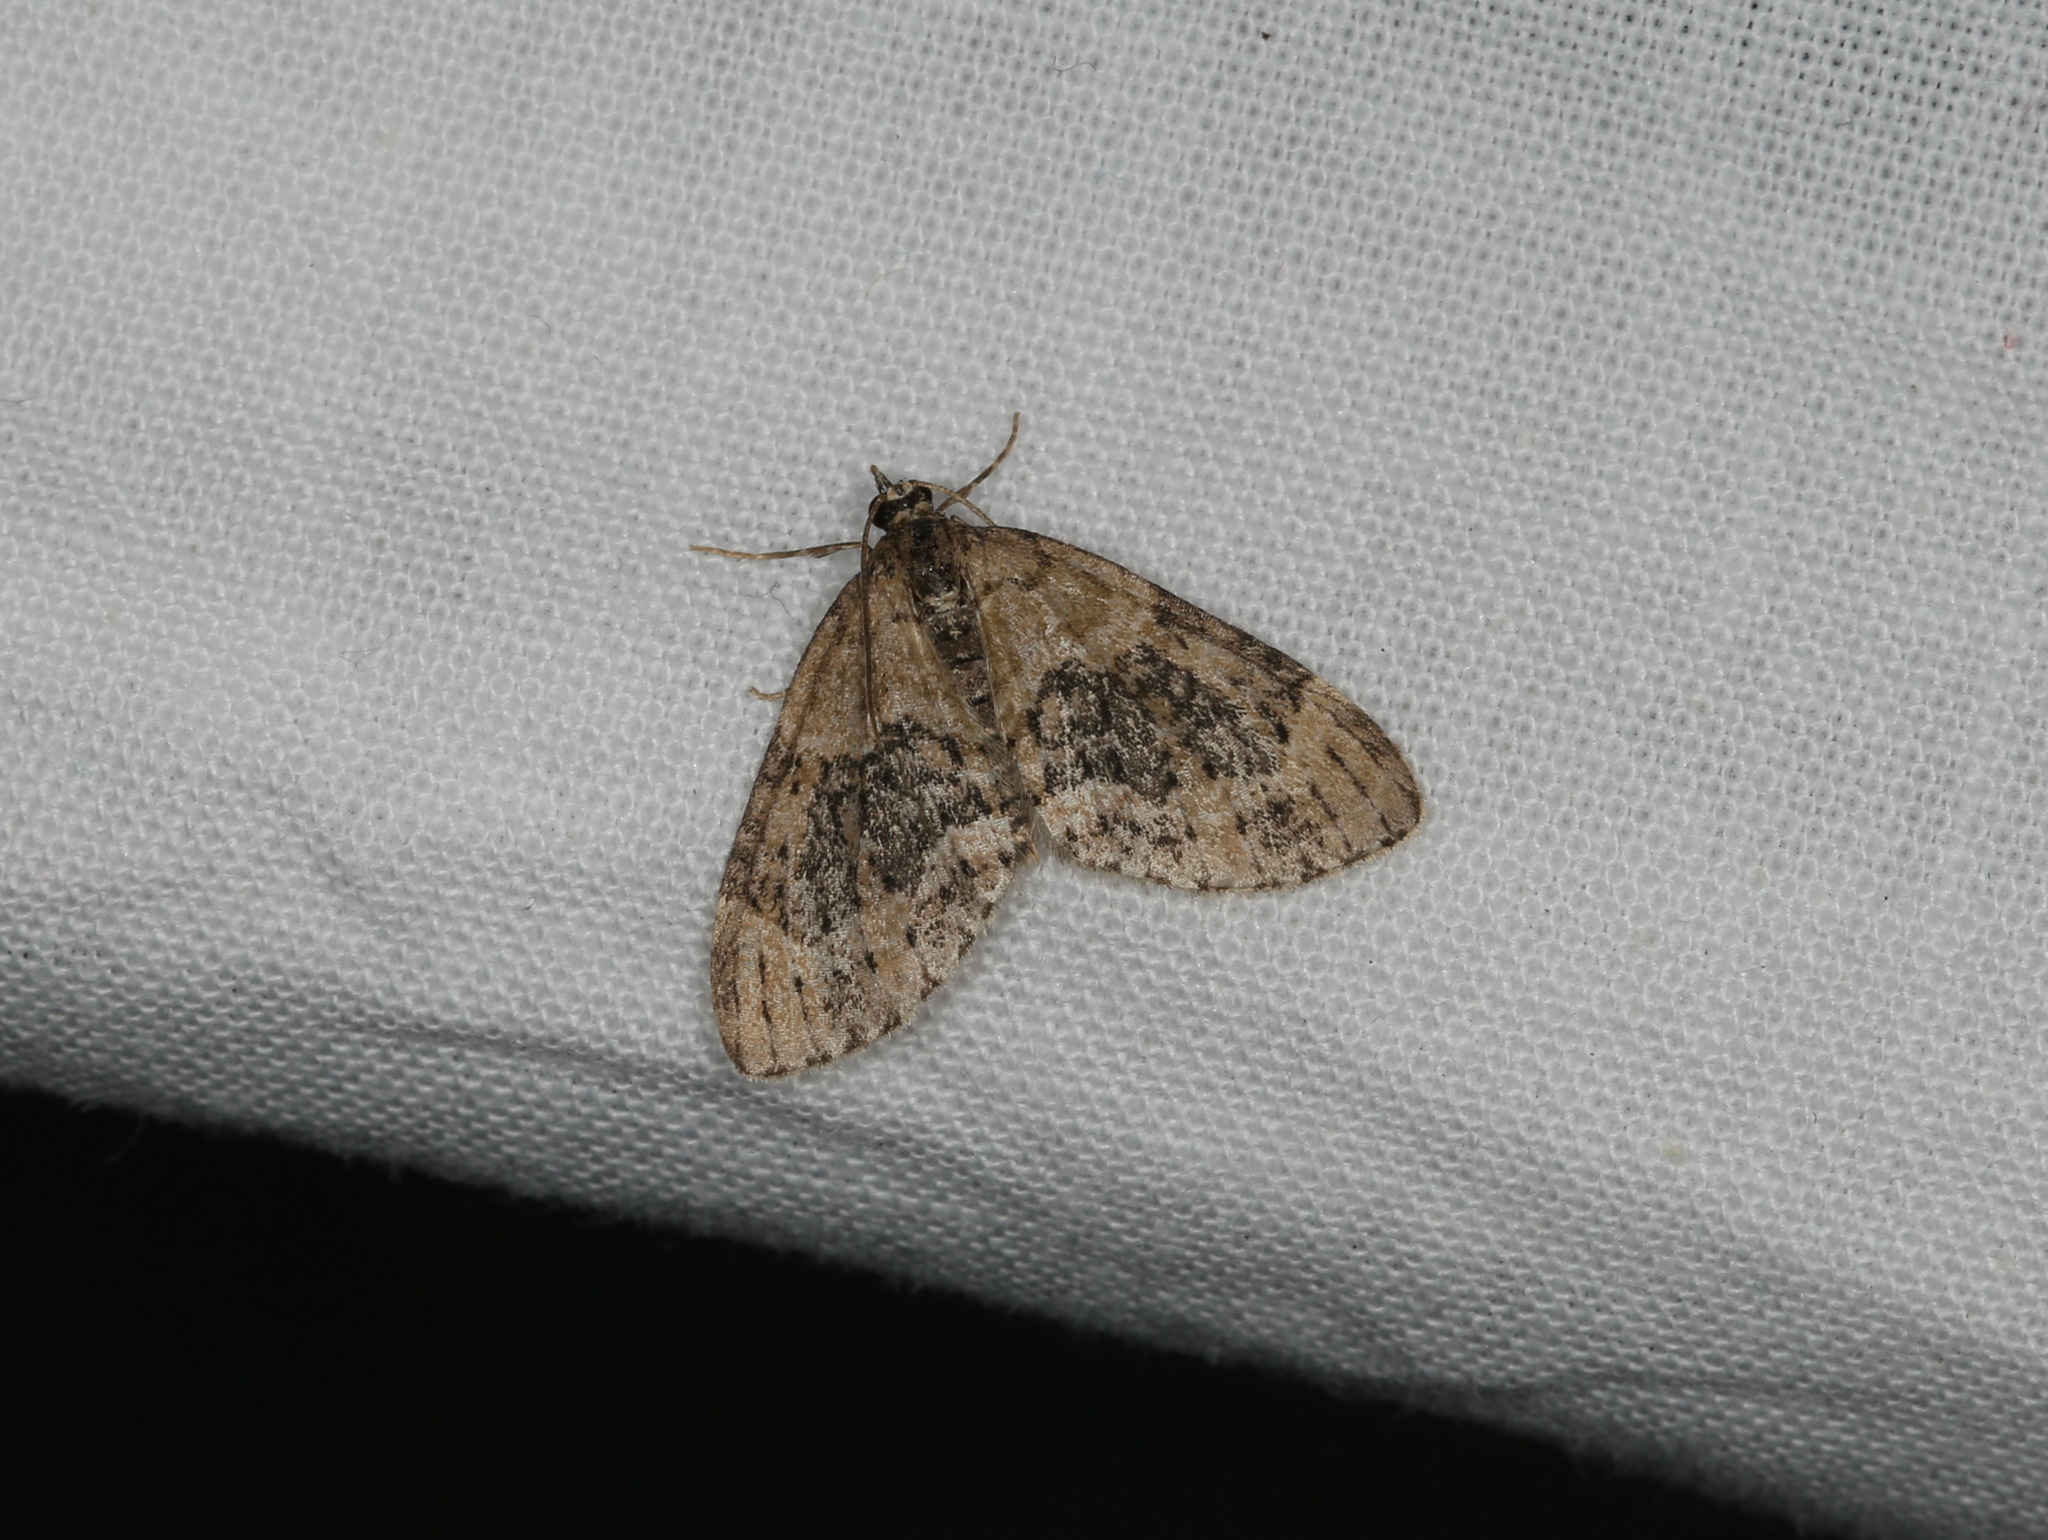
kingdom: Animalia
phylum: Arthropoda
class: Insecta
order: Lepidoptera
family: Geometridae
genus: Acasis
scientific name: Acasis viretata
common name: Yellow-barred brindle
